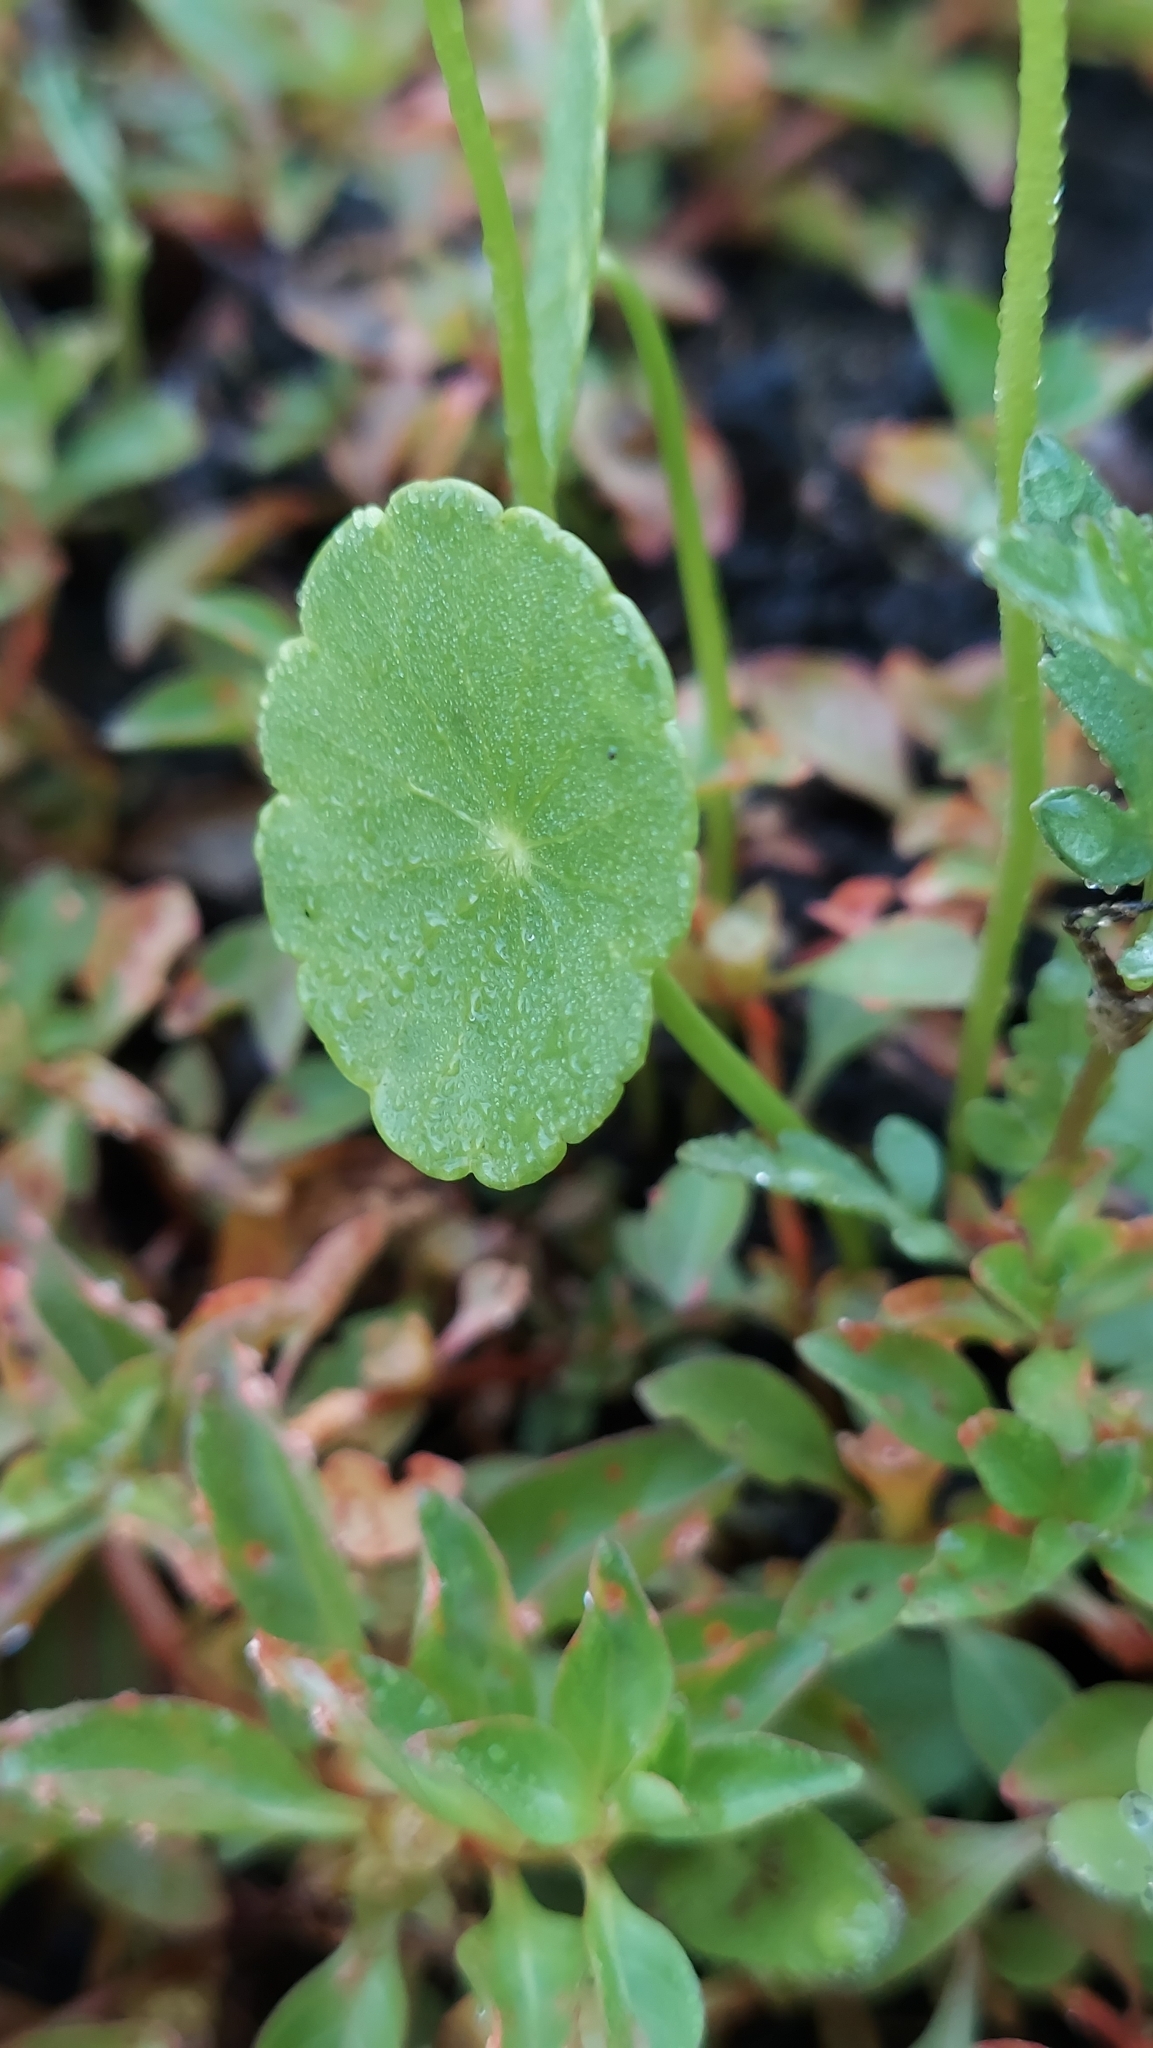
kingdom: Plantae
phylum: Tracheophyta
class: Magnoliopsida
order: Apiales
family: Araliaceae
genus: Hydrocotyle
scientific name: Hydrocotyle umbellata
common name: Water pennywort
